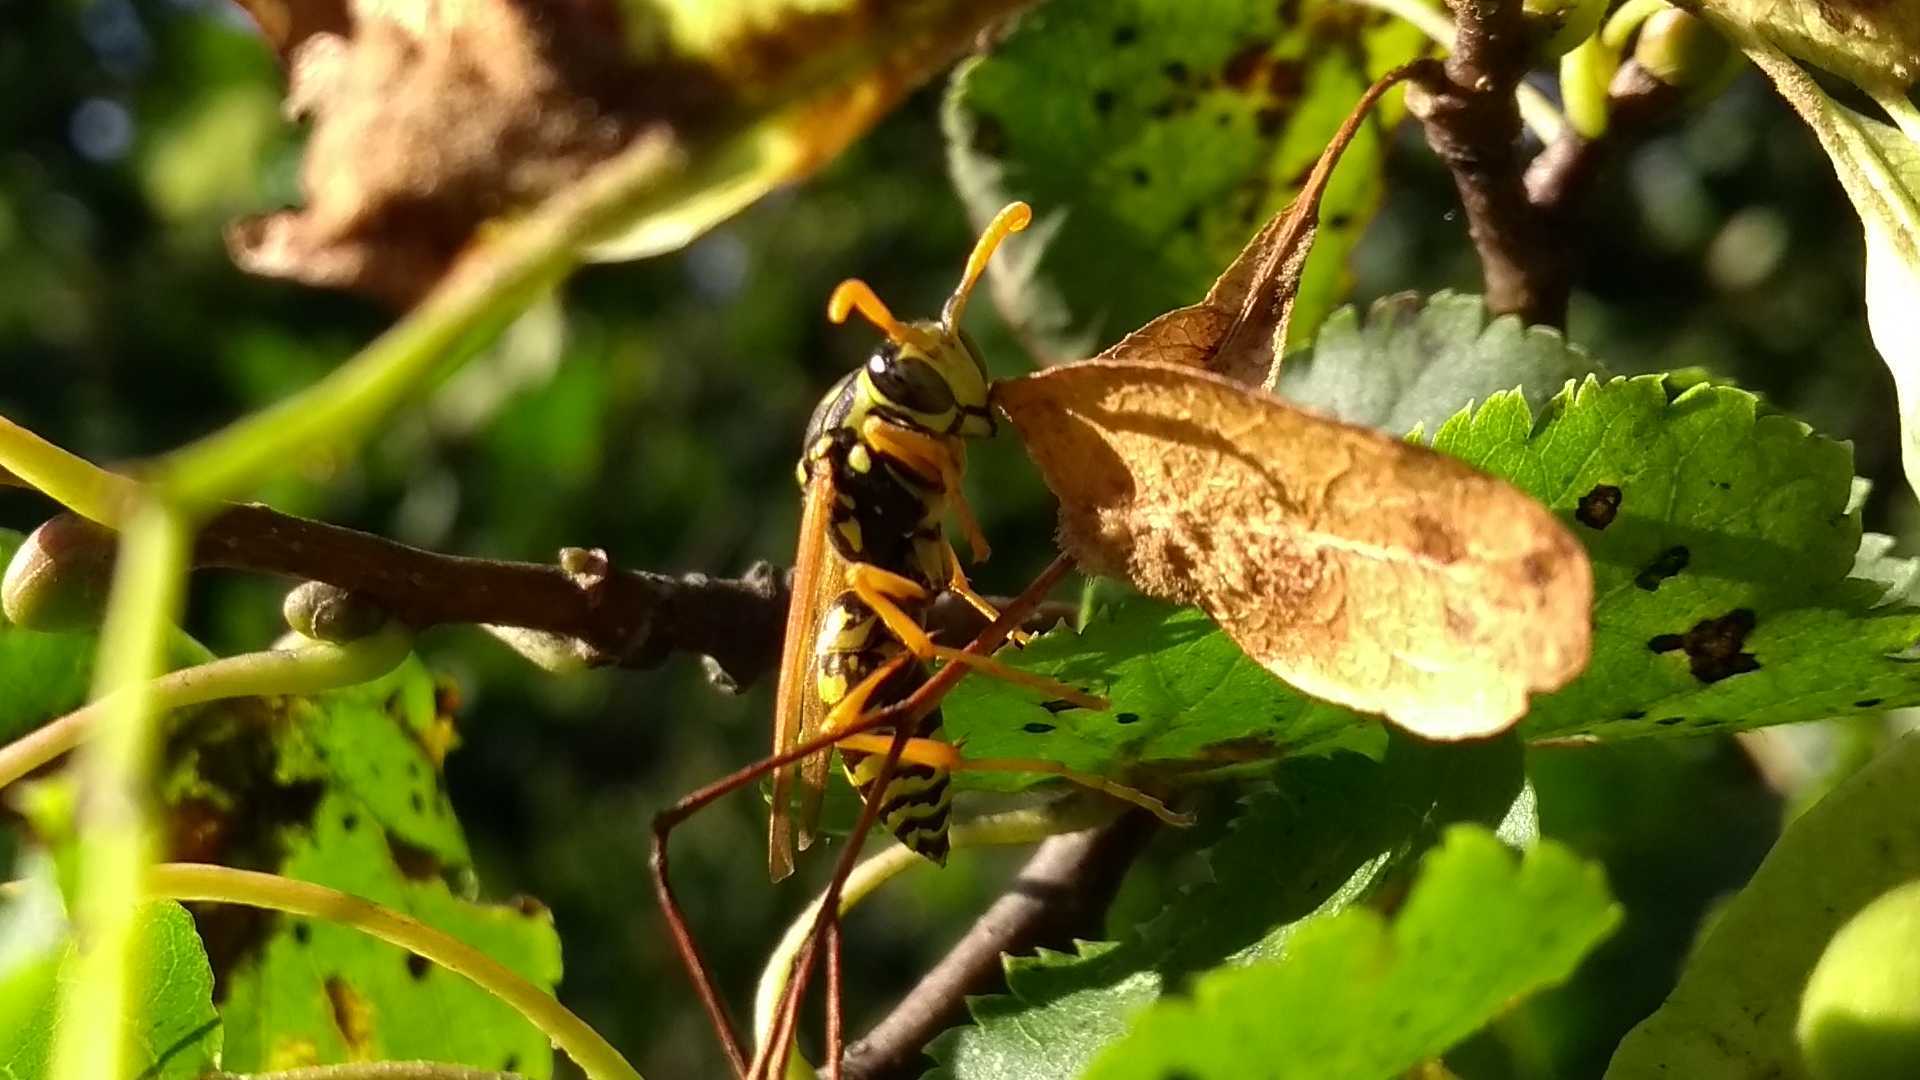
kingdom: Animalia
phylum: Arthropoda
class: Insecta
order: Hymenoptera
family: Eumenidae
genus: Polistes
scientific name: Polistes dominula
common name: Paper wasp
